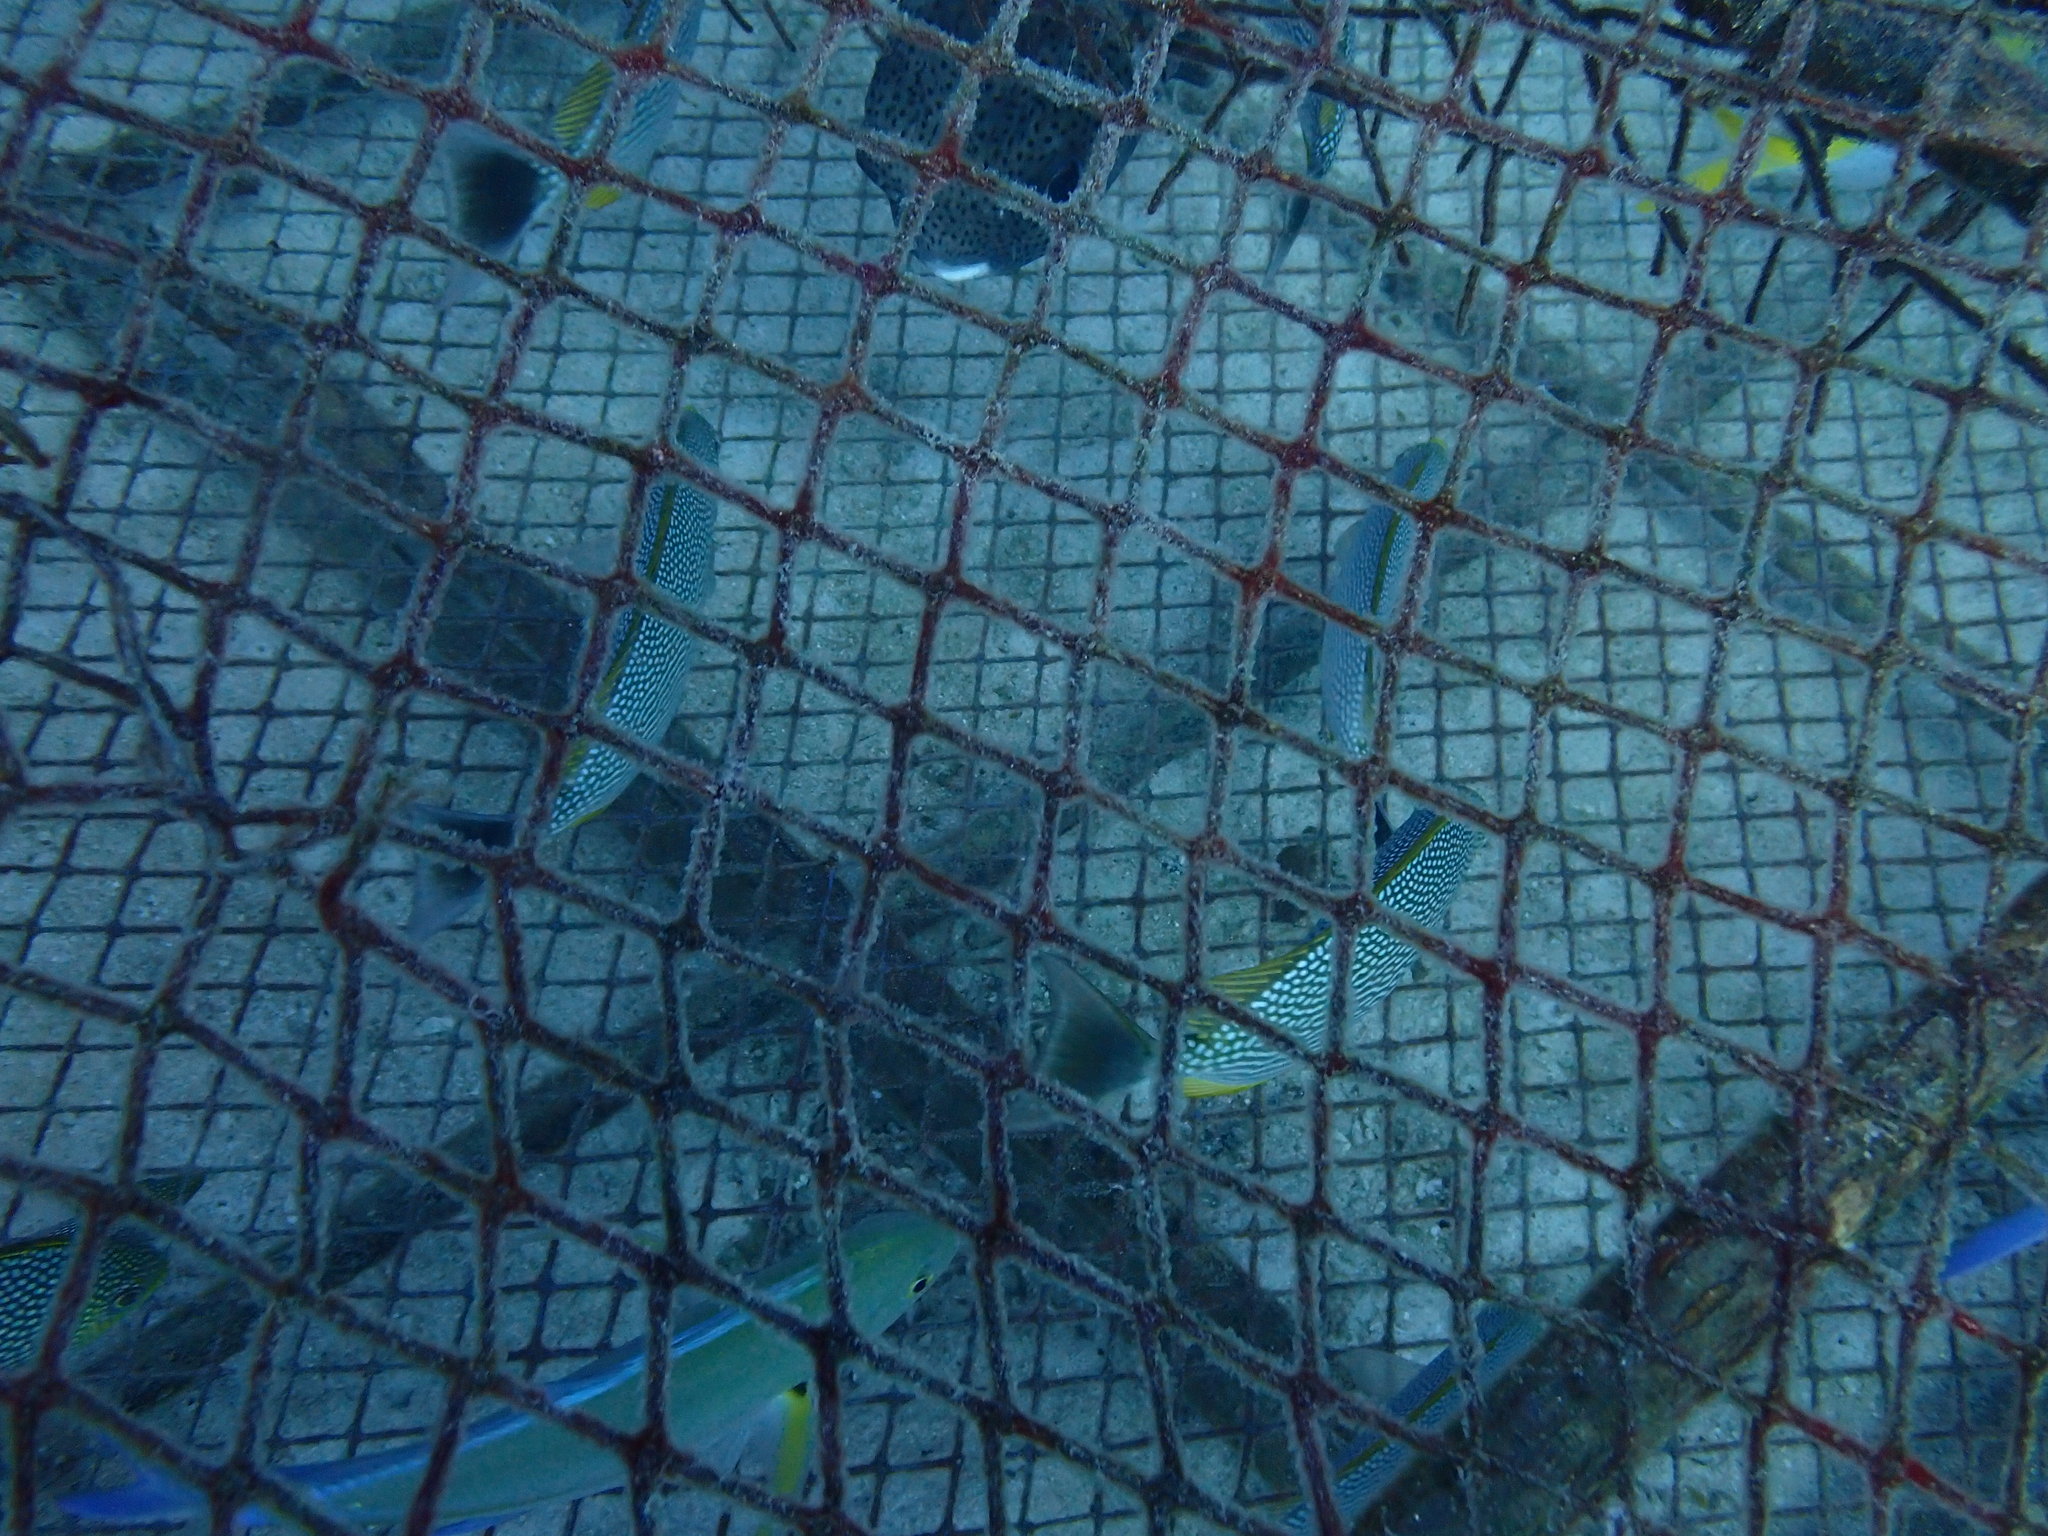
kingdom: Animalia
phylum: Chordata
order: Perciformes
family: Siganidae
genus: Siganus
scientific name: Siganus javus
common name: Java rabbitfish
